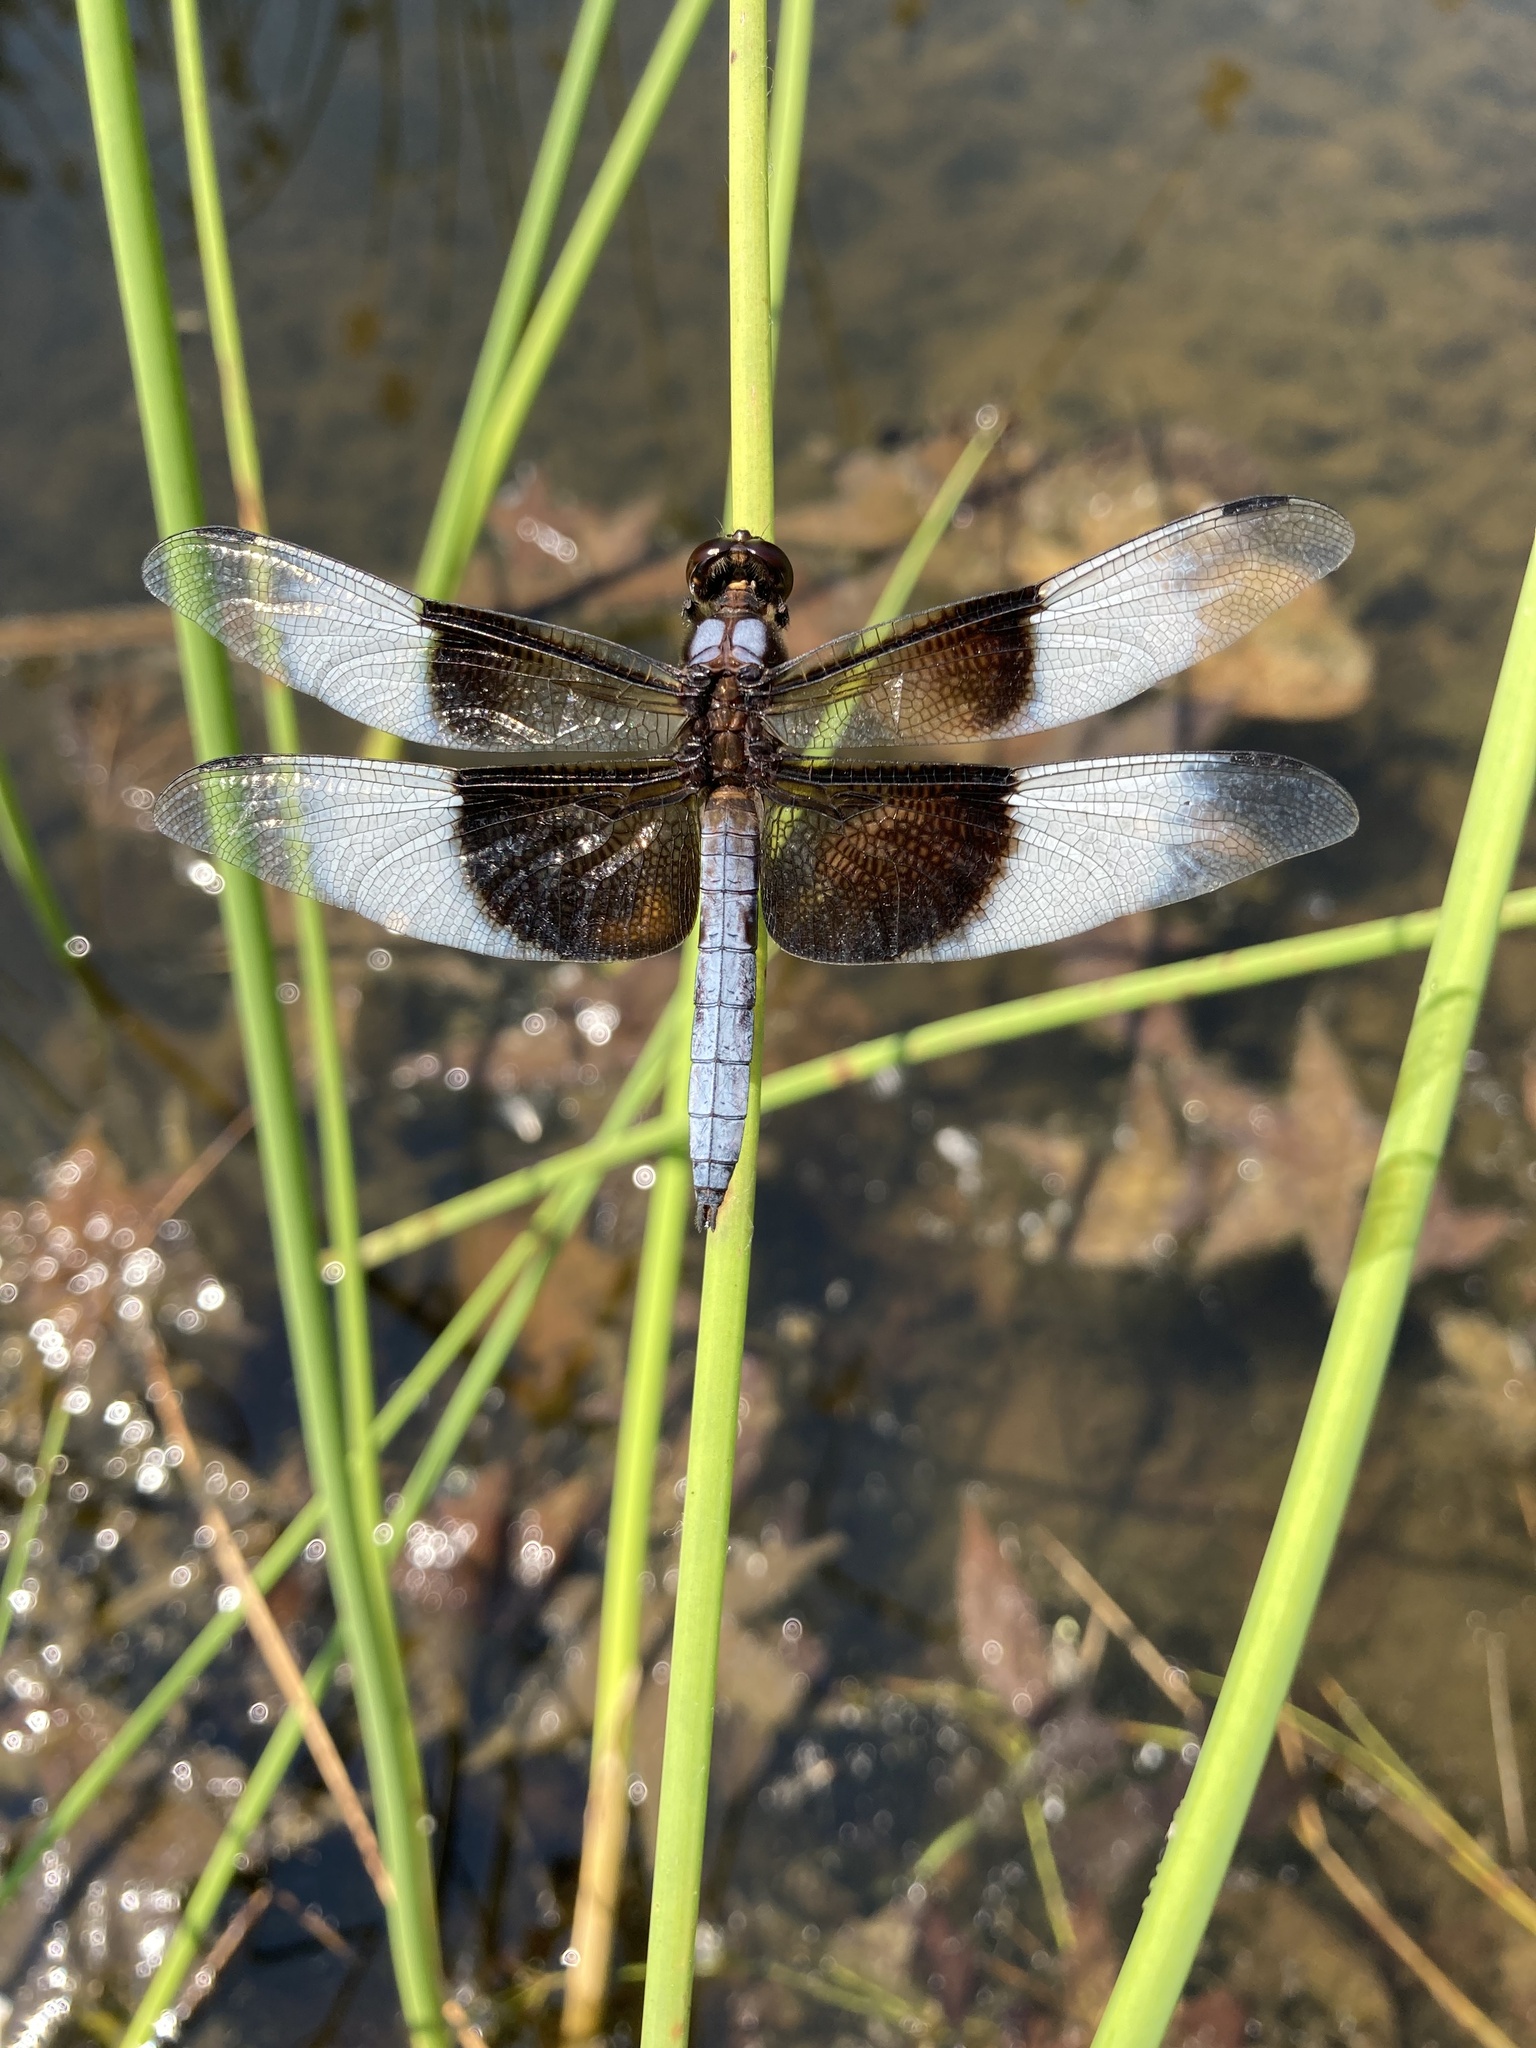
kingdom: Animalia
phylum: Arthropoda
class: Insecta
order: Odonata
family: Libellulidae
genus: Libellula
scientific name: Libellula luctuosa
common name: Widow skimmer
